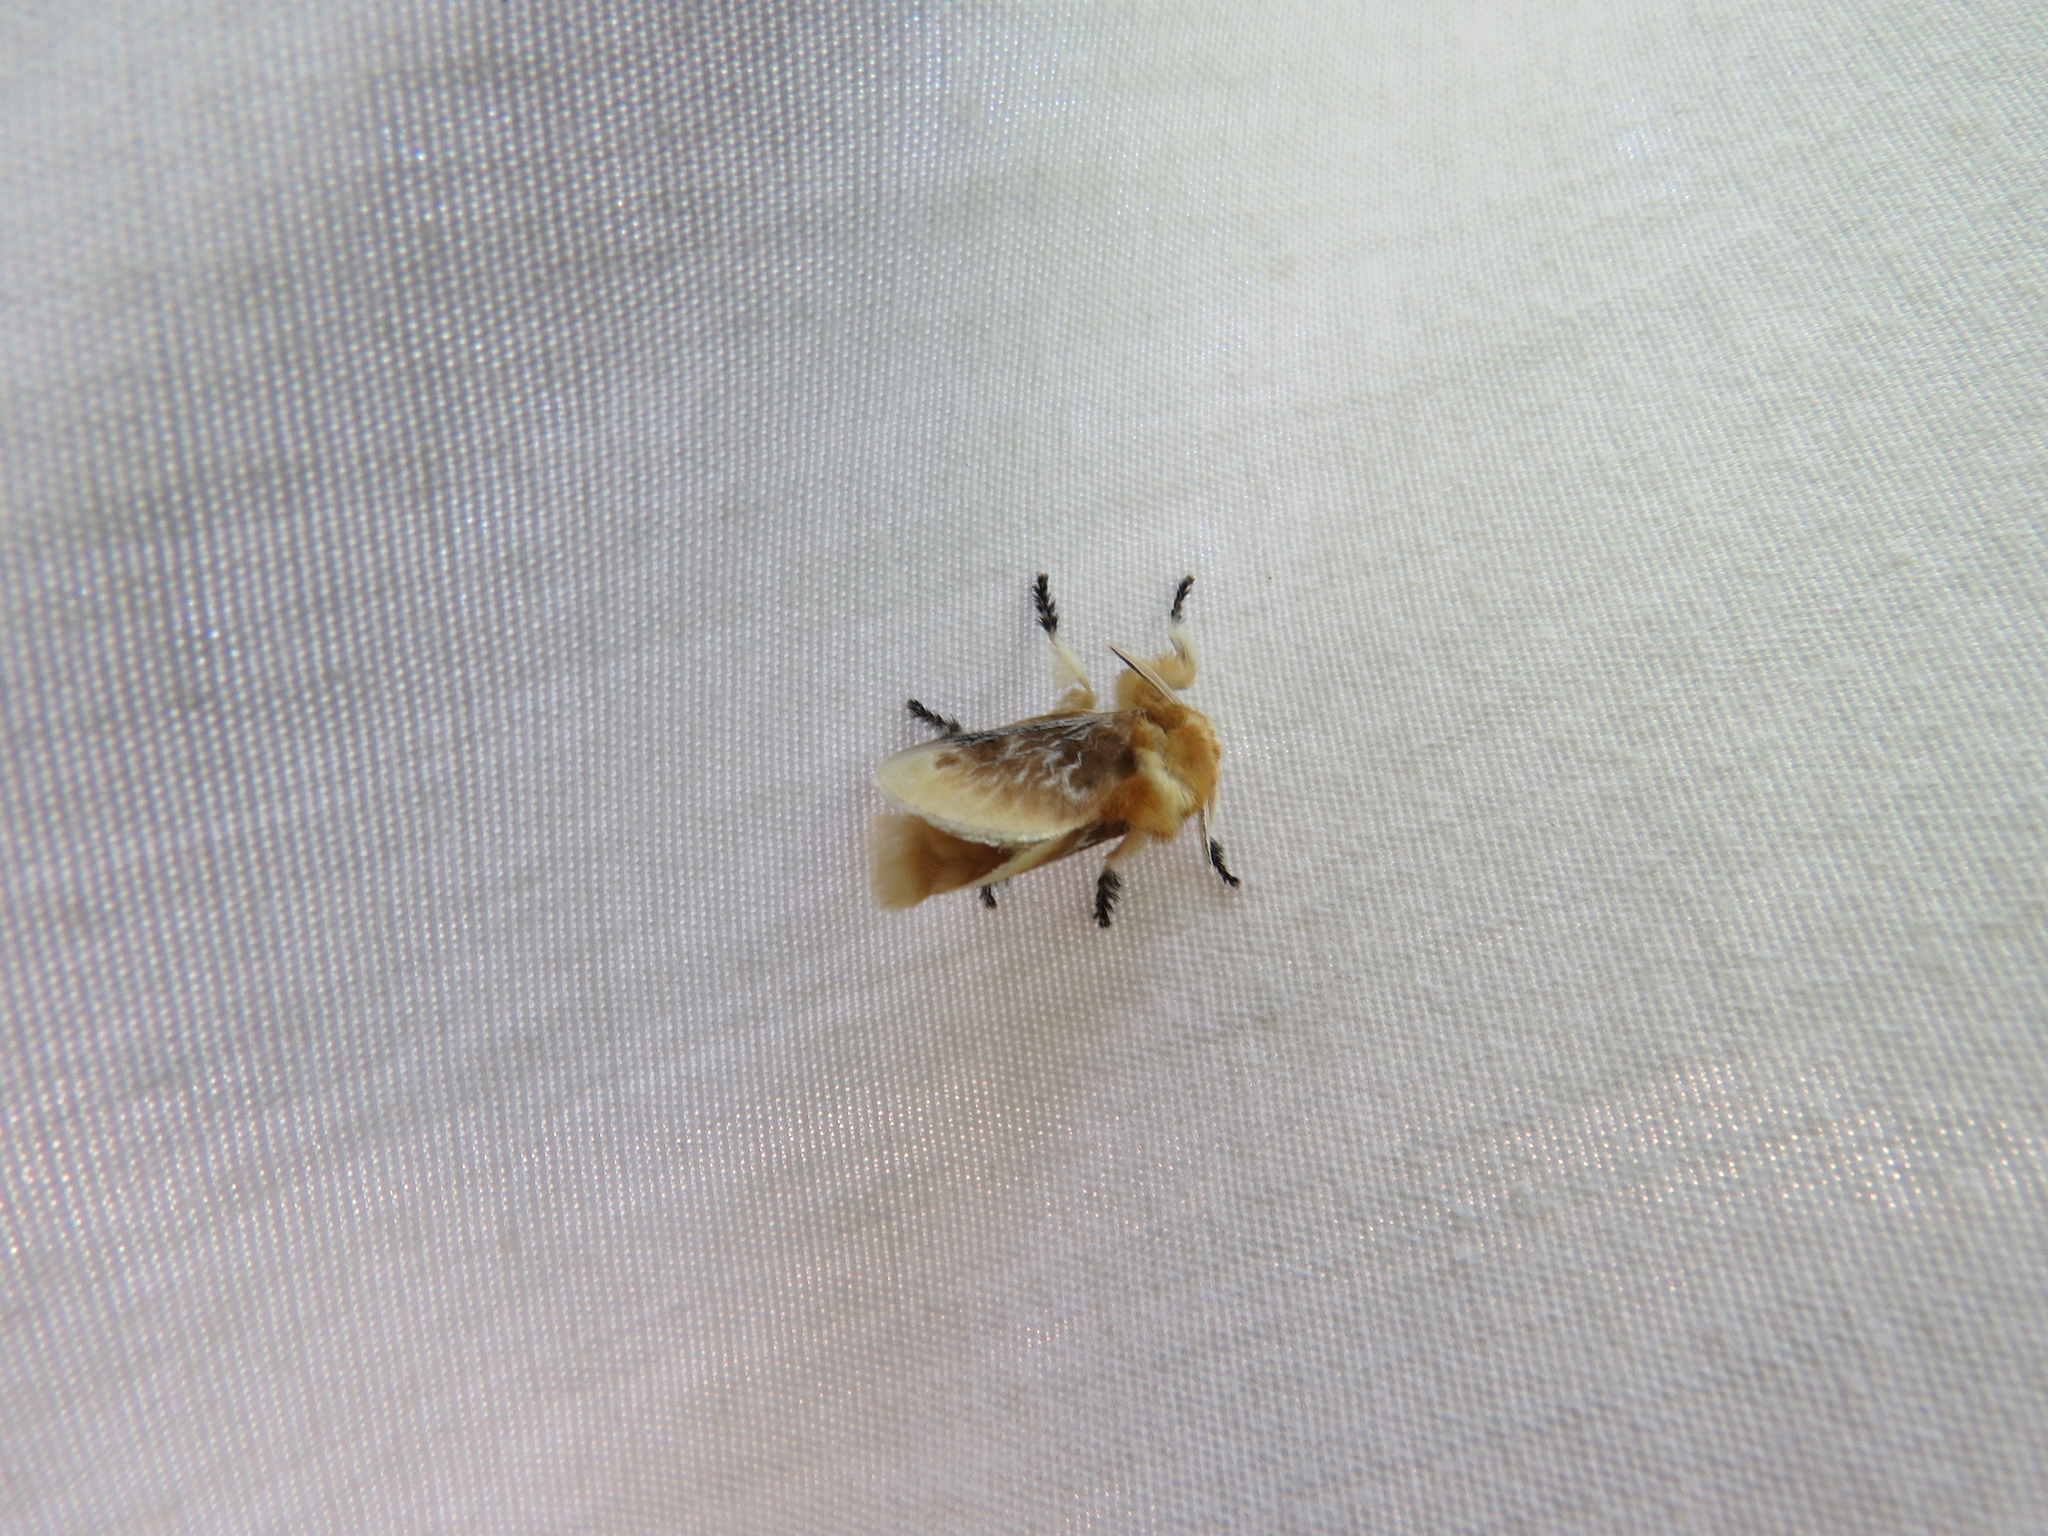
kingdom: Animalia
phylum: Arthropoda
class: Insecta
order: Lepidoptera
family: Megalopygidae
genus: Megalopyge
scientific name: Megalopyge opercularis
